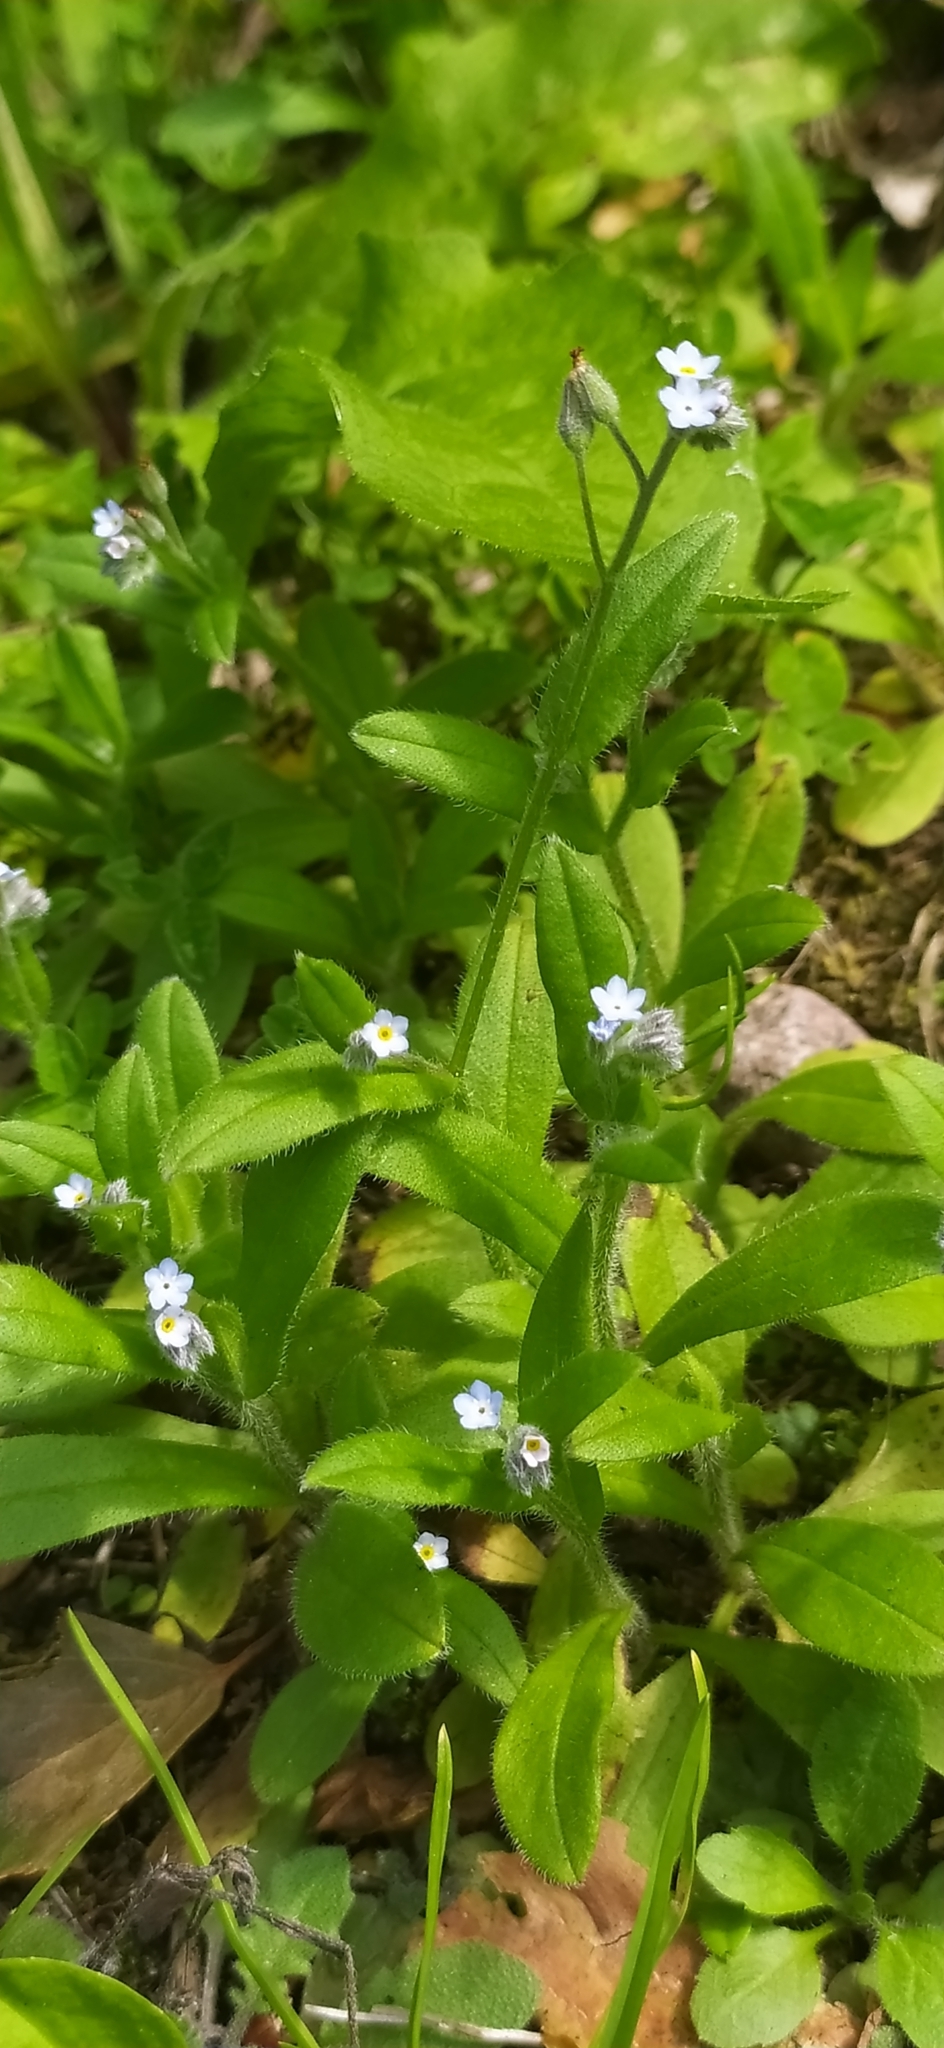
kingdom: Plantae
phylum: Tracheophyta
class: Magnoliopsida
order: Boraginales
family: Boraginaceae
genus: Myosotis
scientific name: Myosotis arvensis
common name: Field forget-me-not
